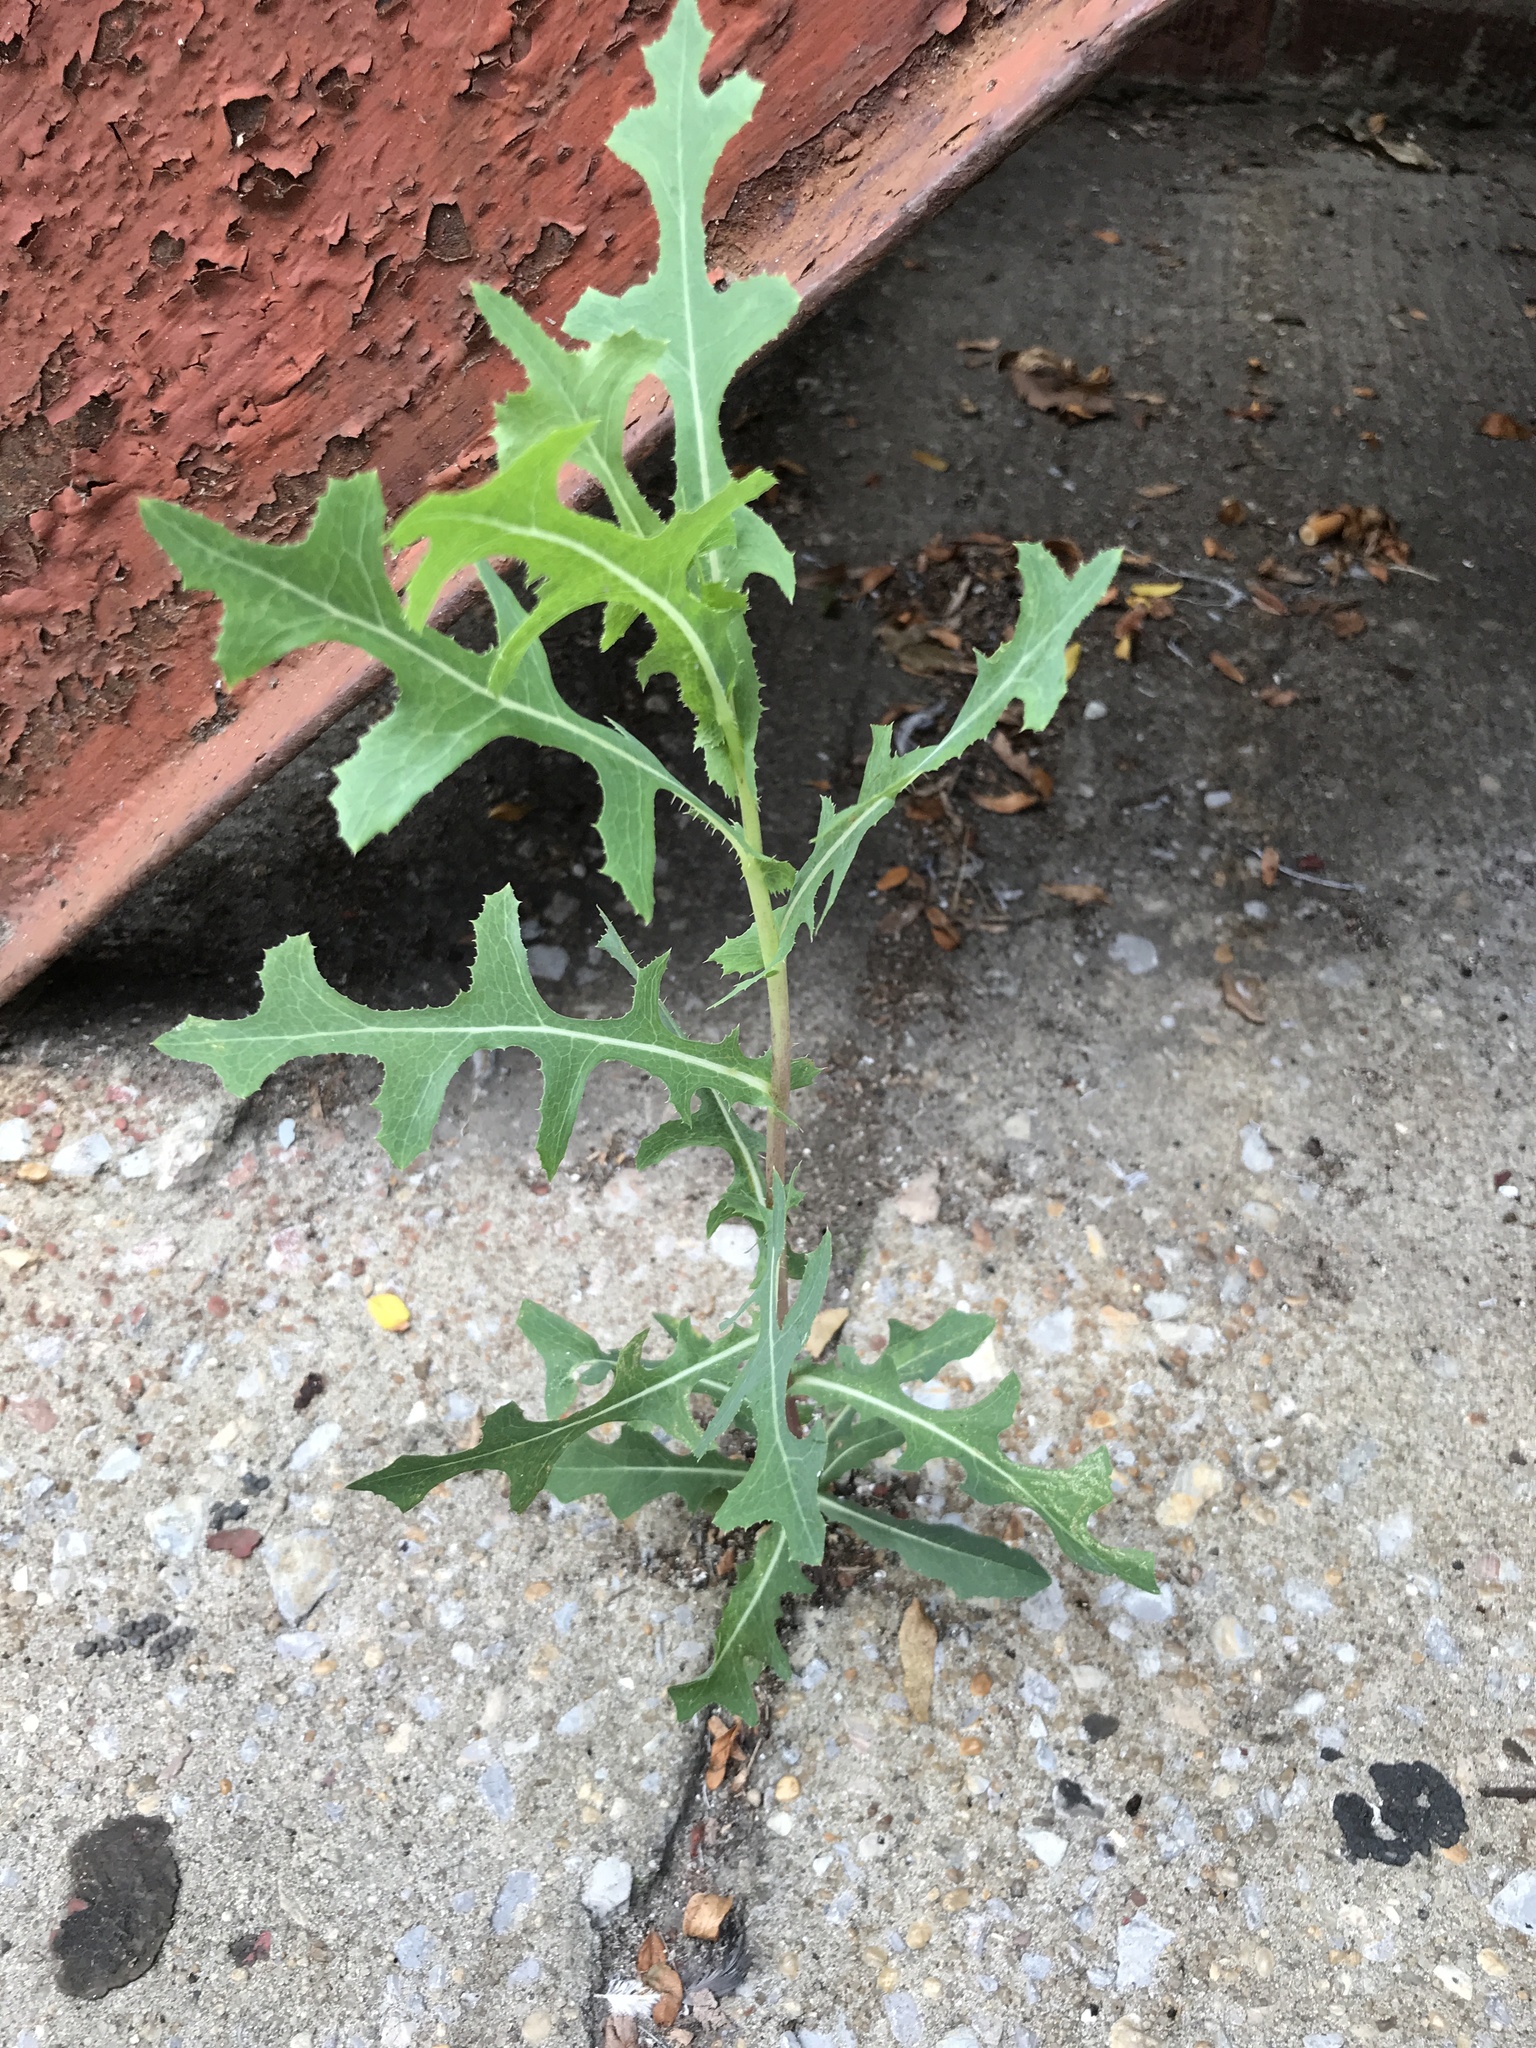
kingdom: Plantae
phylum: Tracheophyta
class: Magnoliopsida
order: Asterales
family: Asteraceae
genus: Lactuca
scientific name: Lactuca serriola
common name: Prickly lettuce
